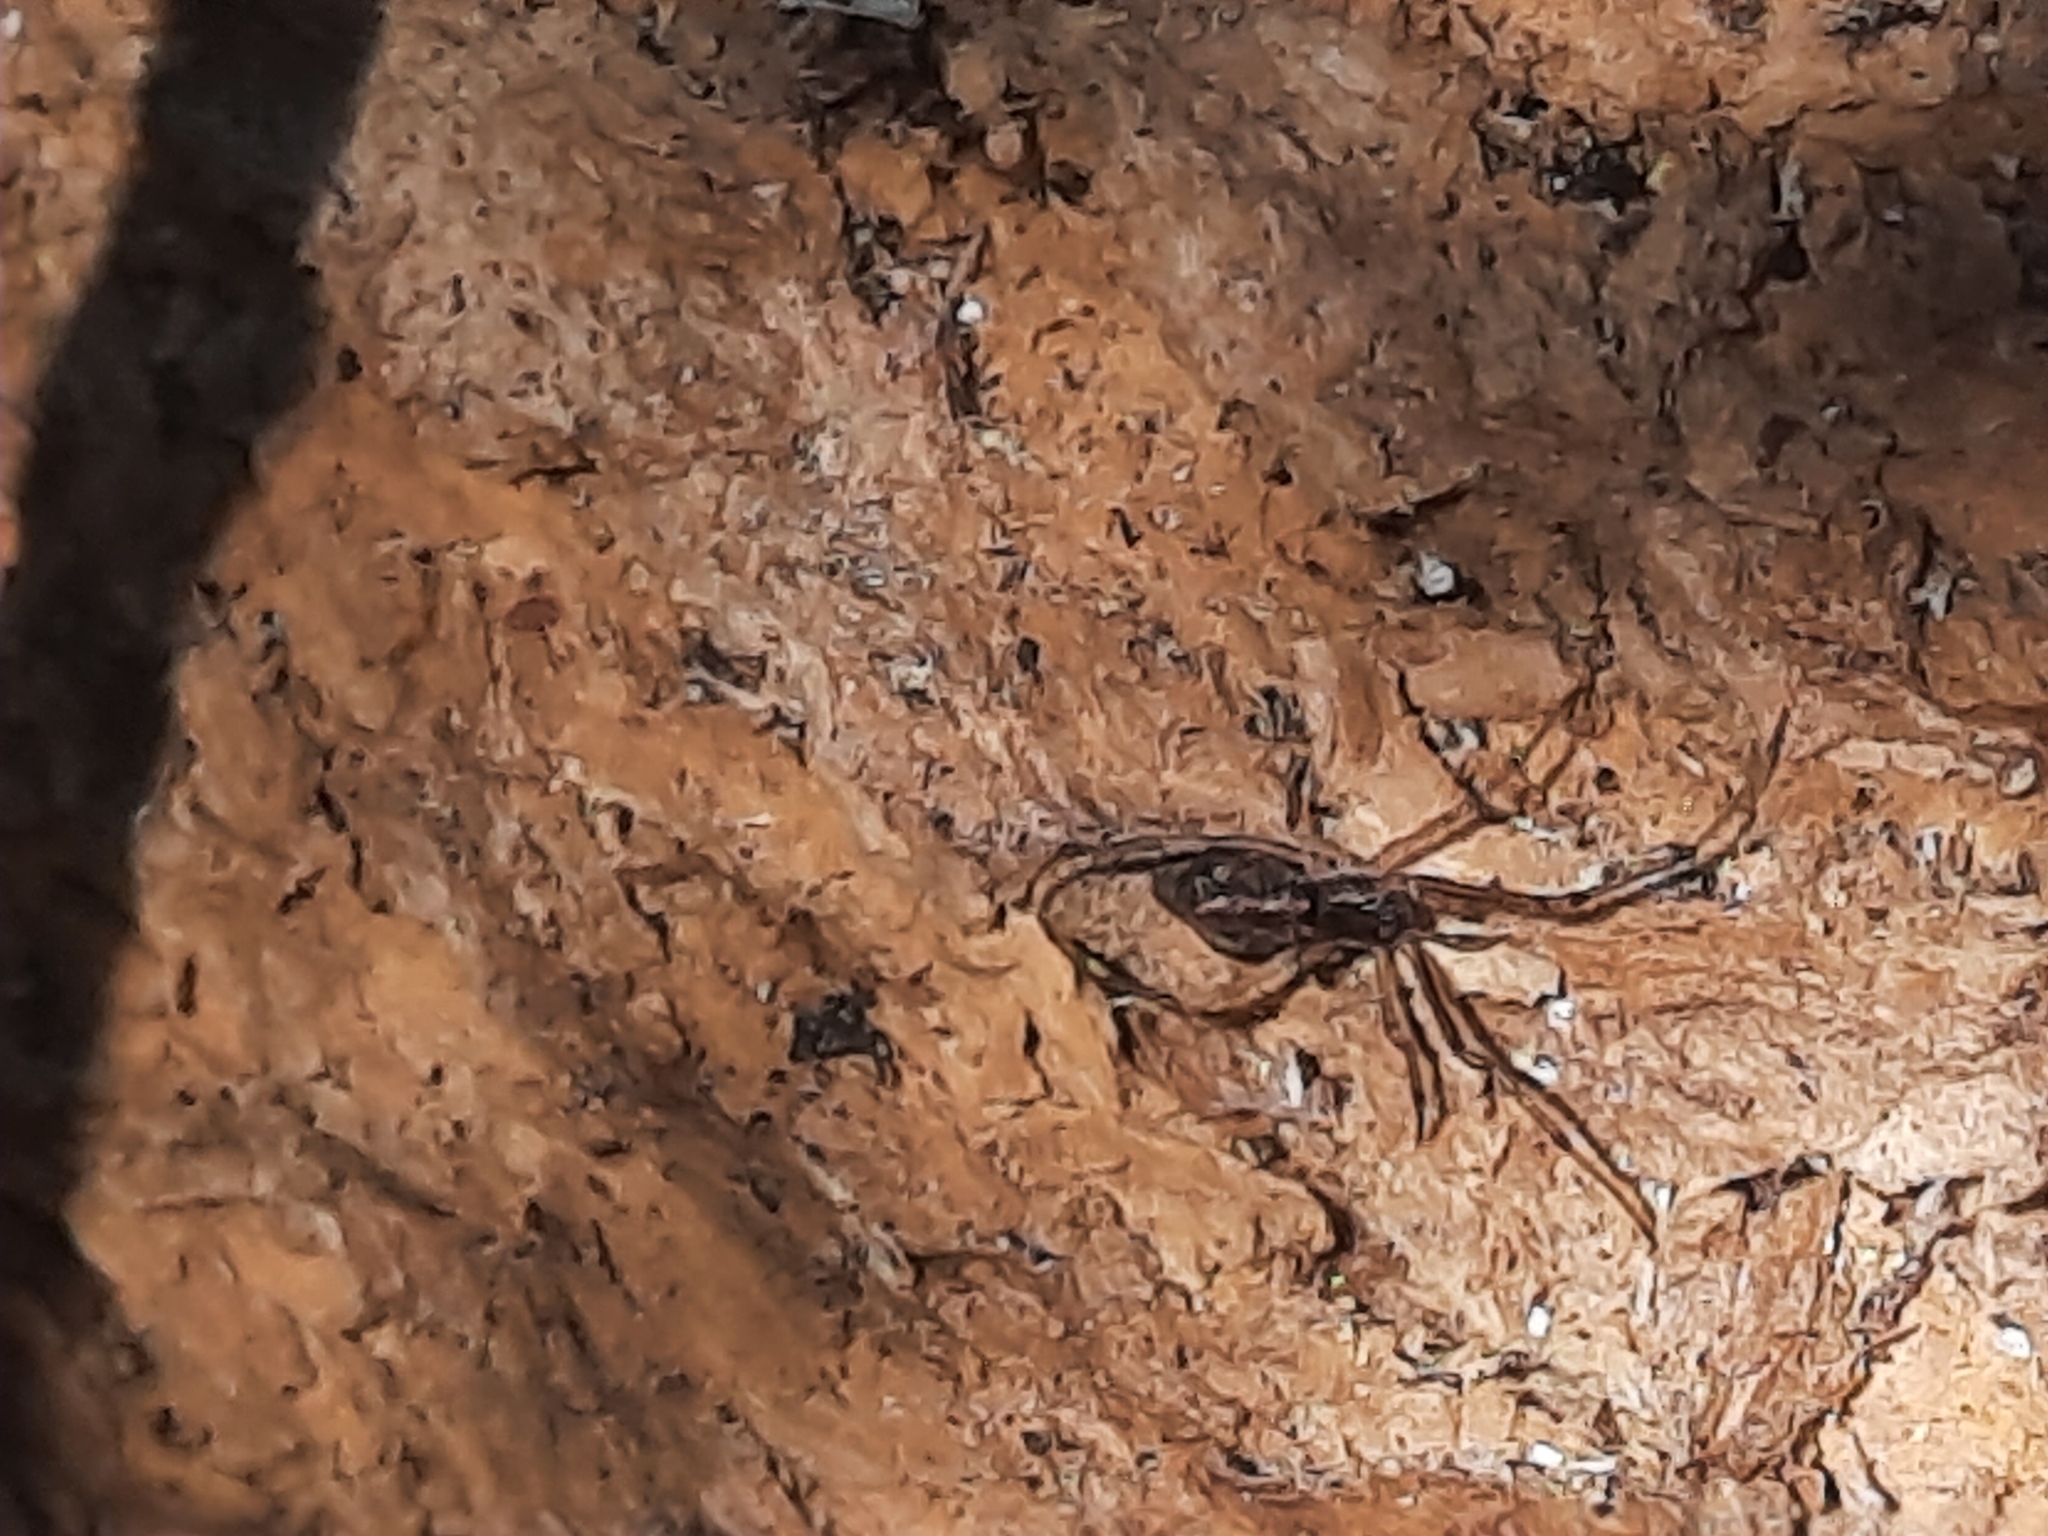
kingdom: Animalia
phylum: Arthropoda
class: Arachnida
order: Araneae
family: Theridiidae
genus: Moneta
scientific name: Moneta conifera
